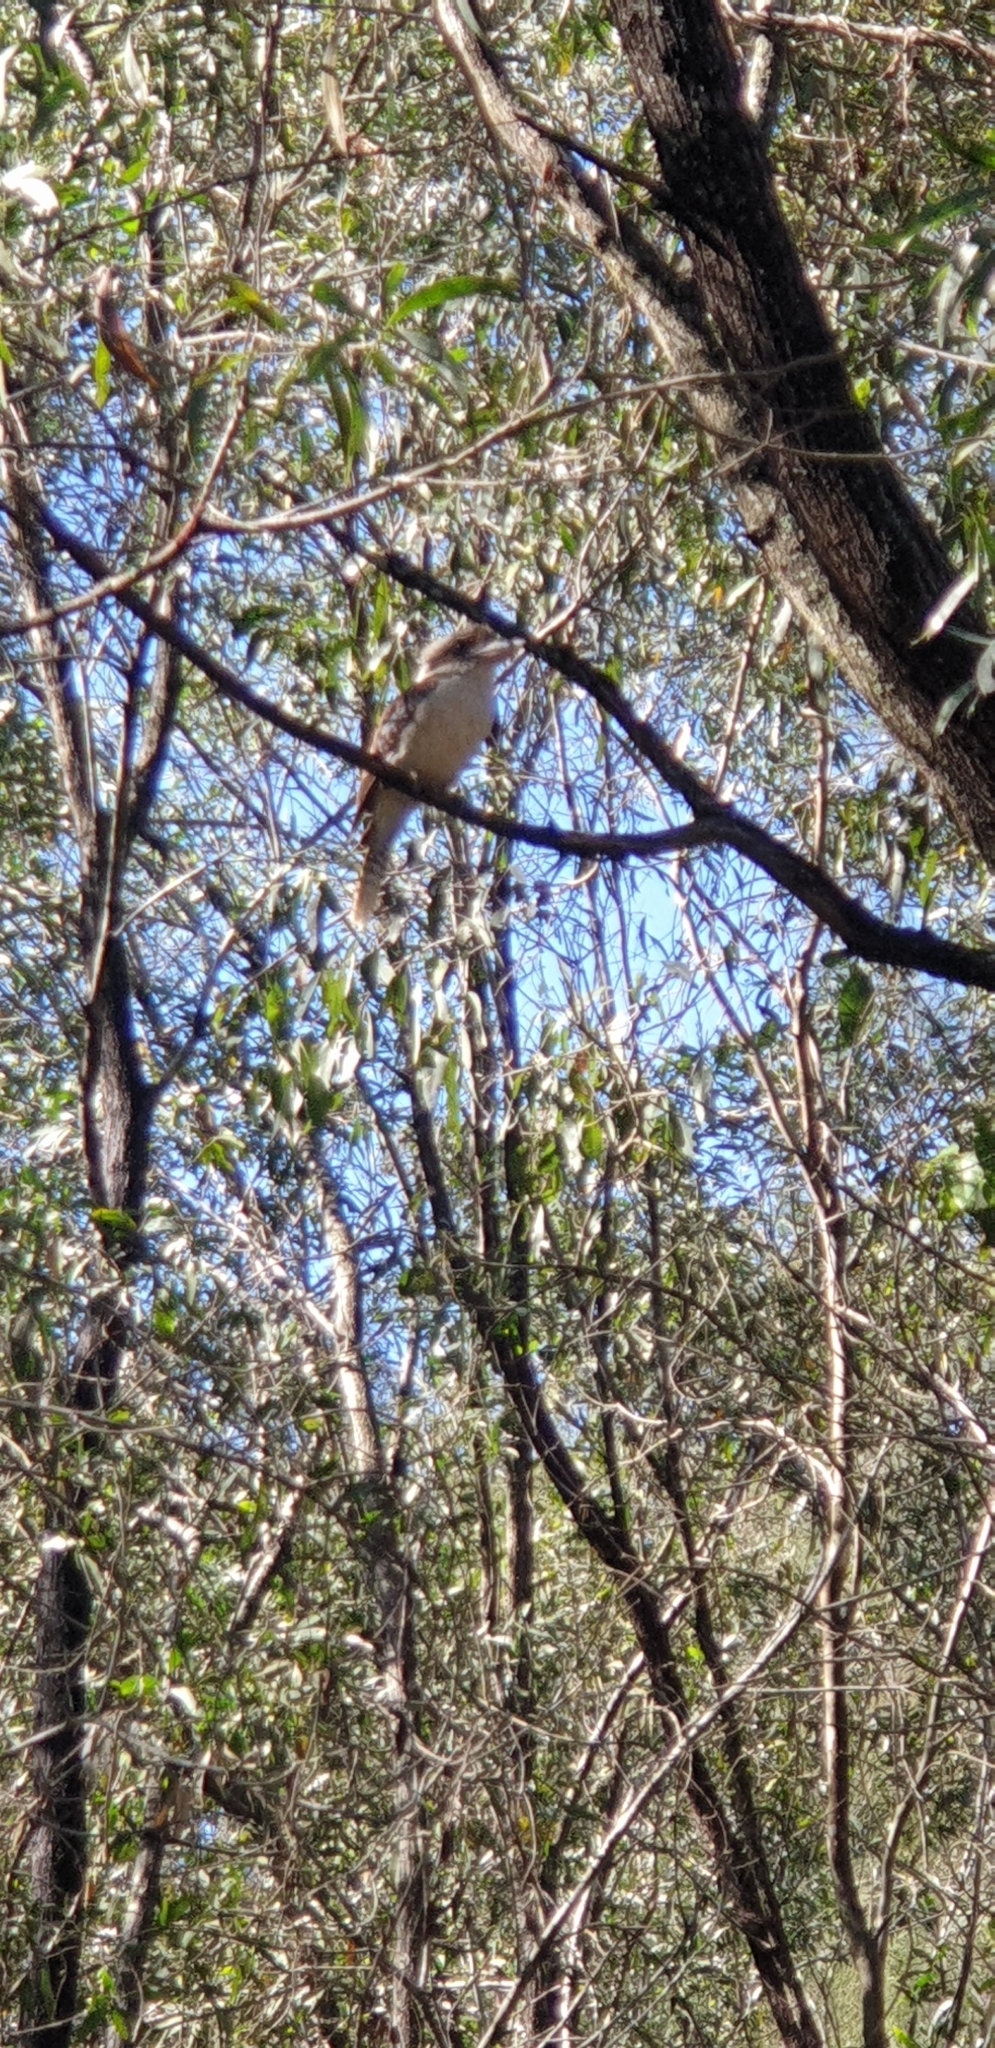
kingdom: Animalia
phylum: Chordata
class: Aves
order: Coraciiformes
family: Alcedinidae
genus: Dacelo
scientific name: Dacelo novaeguineae
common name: Laughing kookaburra
